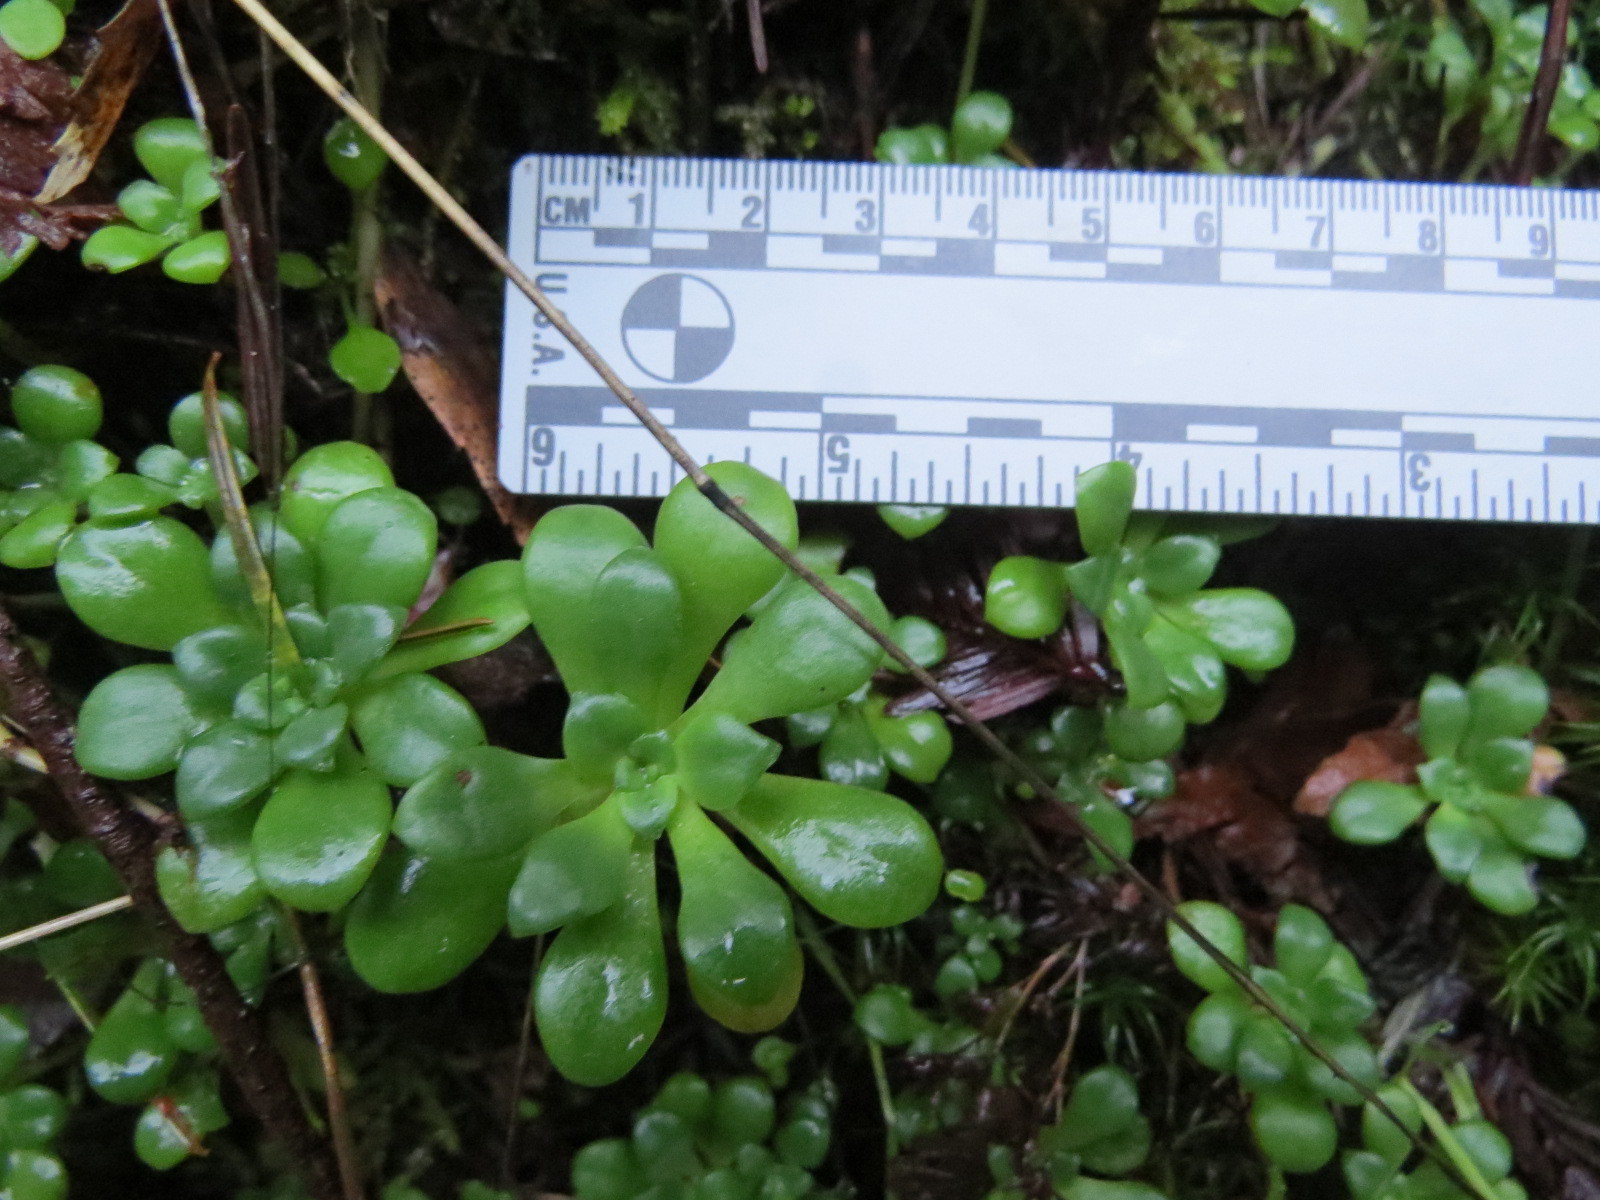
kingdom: Plantae
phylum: Tracheophyta
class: Magnoliopsida
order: Saxifragales
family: Crassulaceae
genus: Sedum
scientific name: Sedum spathulifolium
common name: Colorado stonecrop
